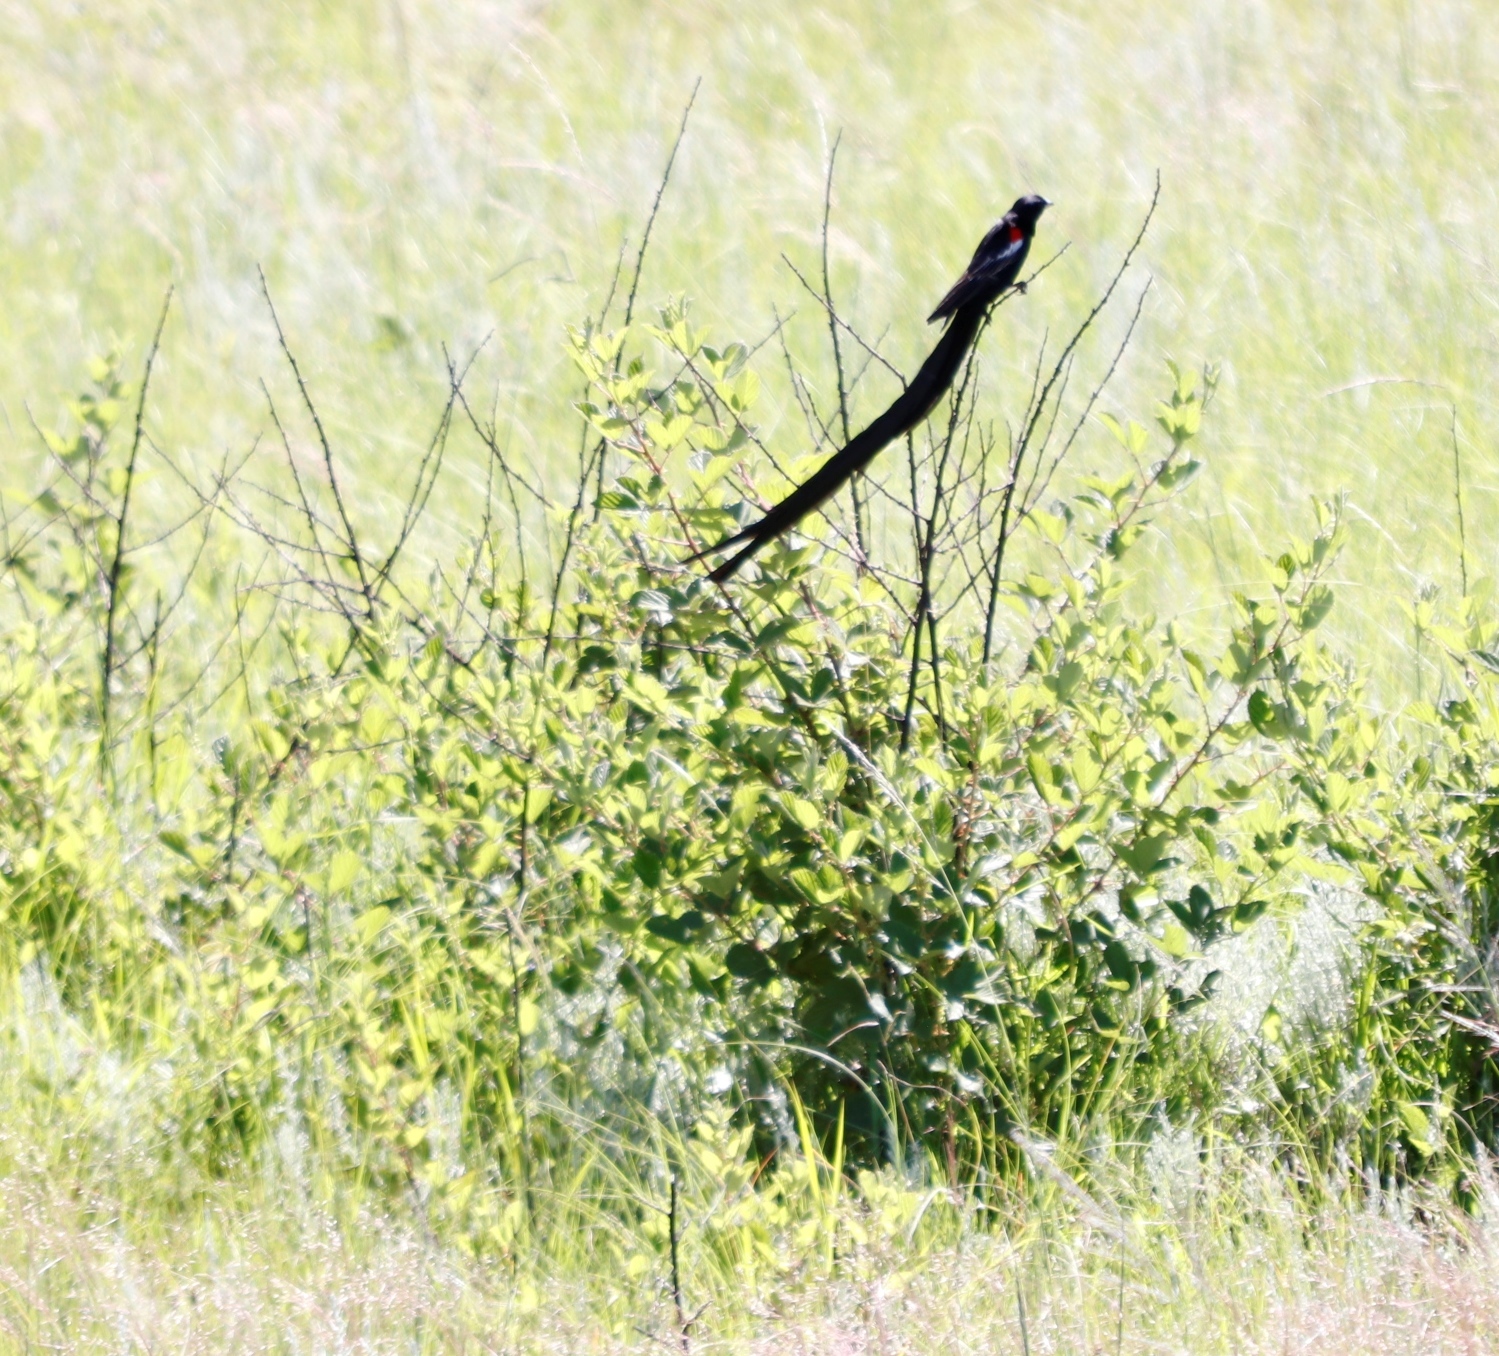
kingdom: Animalia
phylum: Chordata
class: Aves
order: Passeriformes
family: Ploceidae
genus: Euplectes
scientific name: Euplectes progne
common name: Long-tailed widowbird
